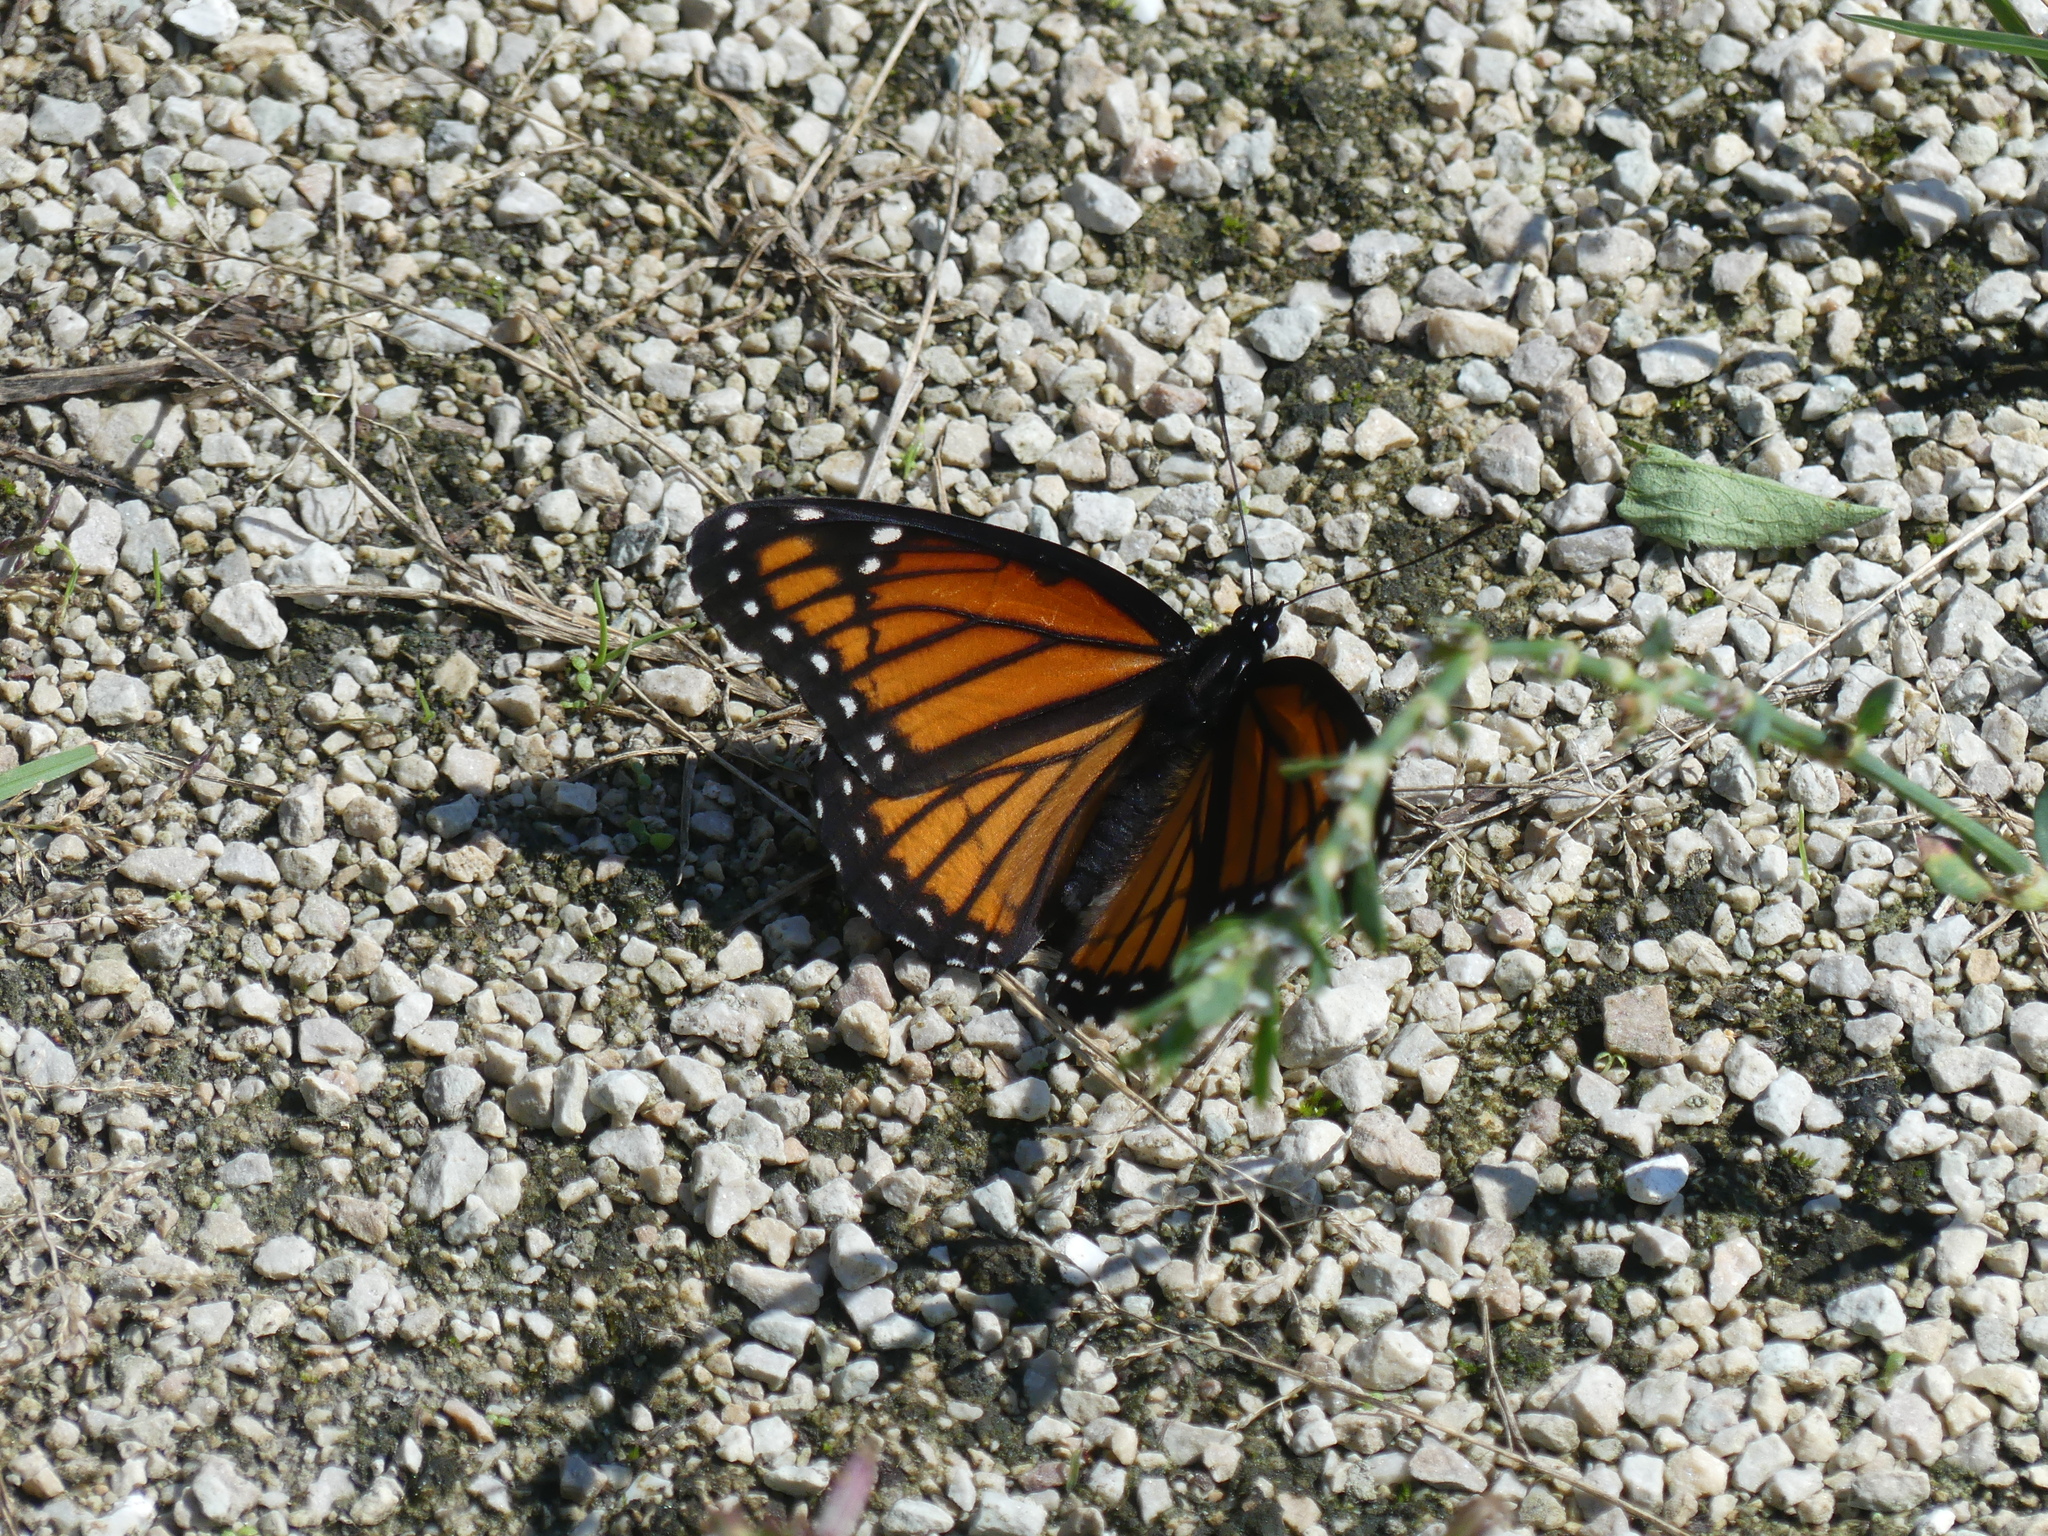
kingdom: Animalia
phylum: Arthropoda
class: Insecta
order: Lepidoptera
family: Nymphalidae
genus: Limenitis
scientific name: Limenitis archippus
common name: Viceroy
